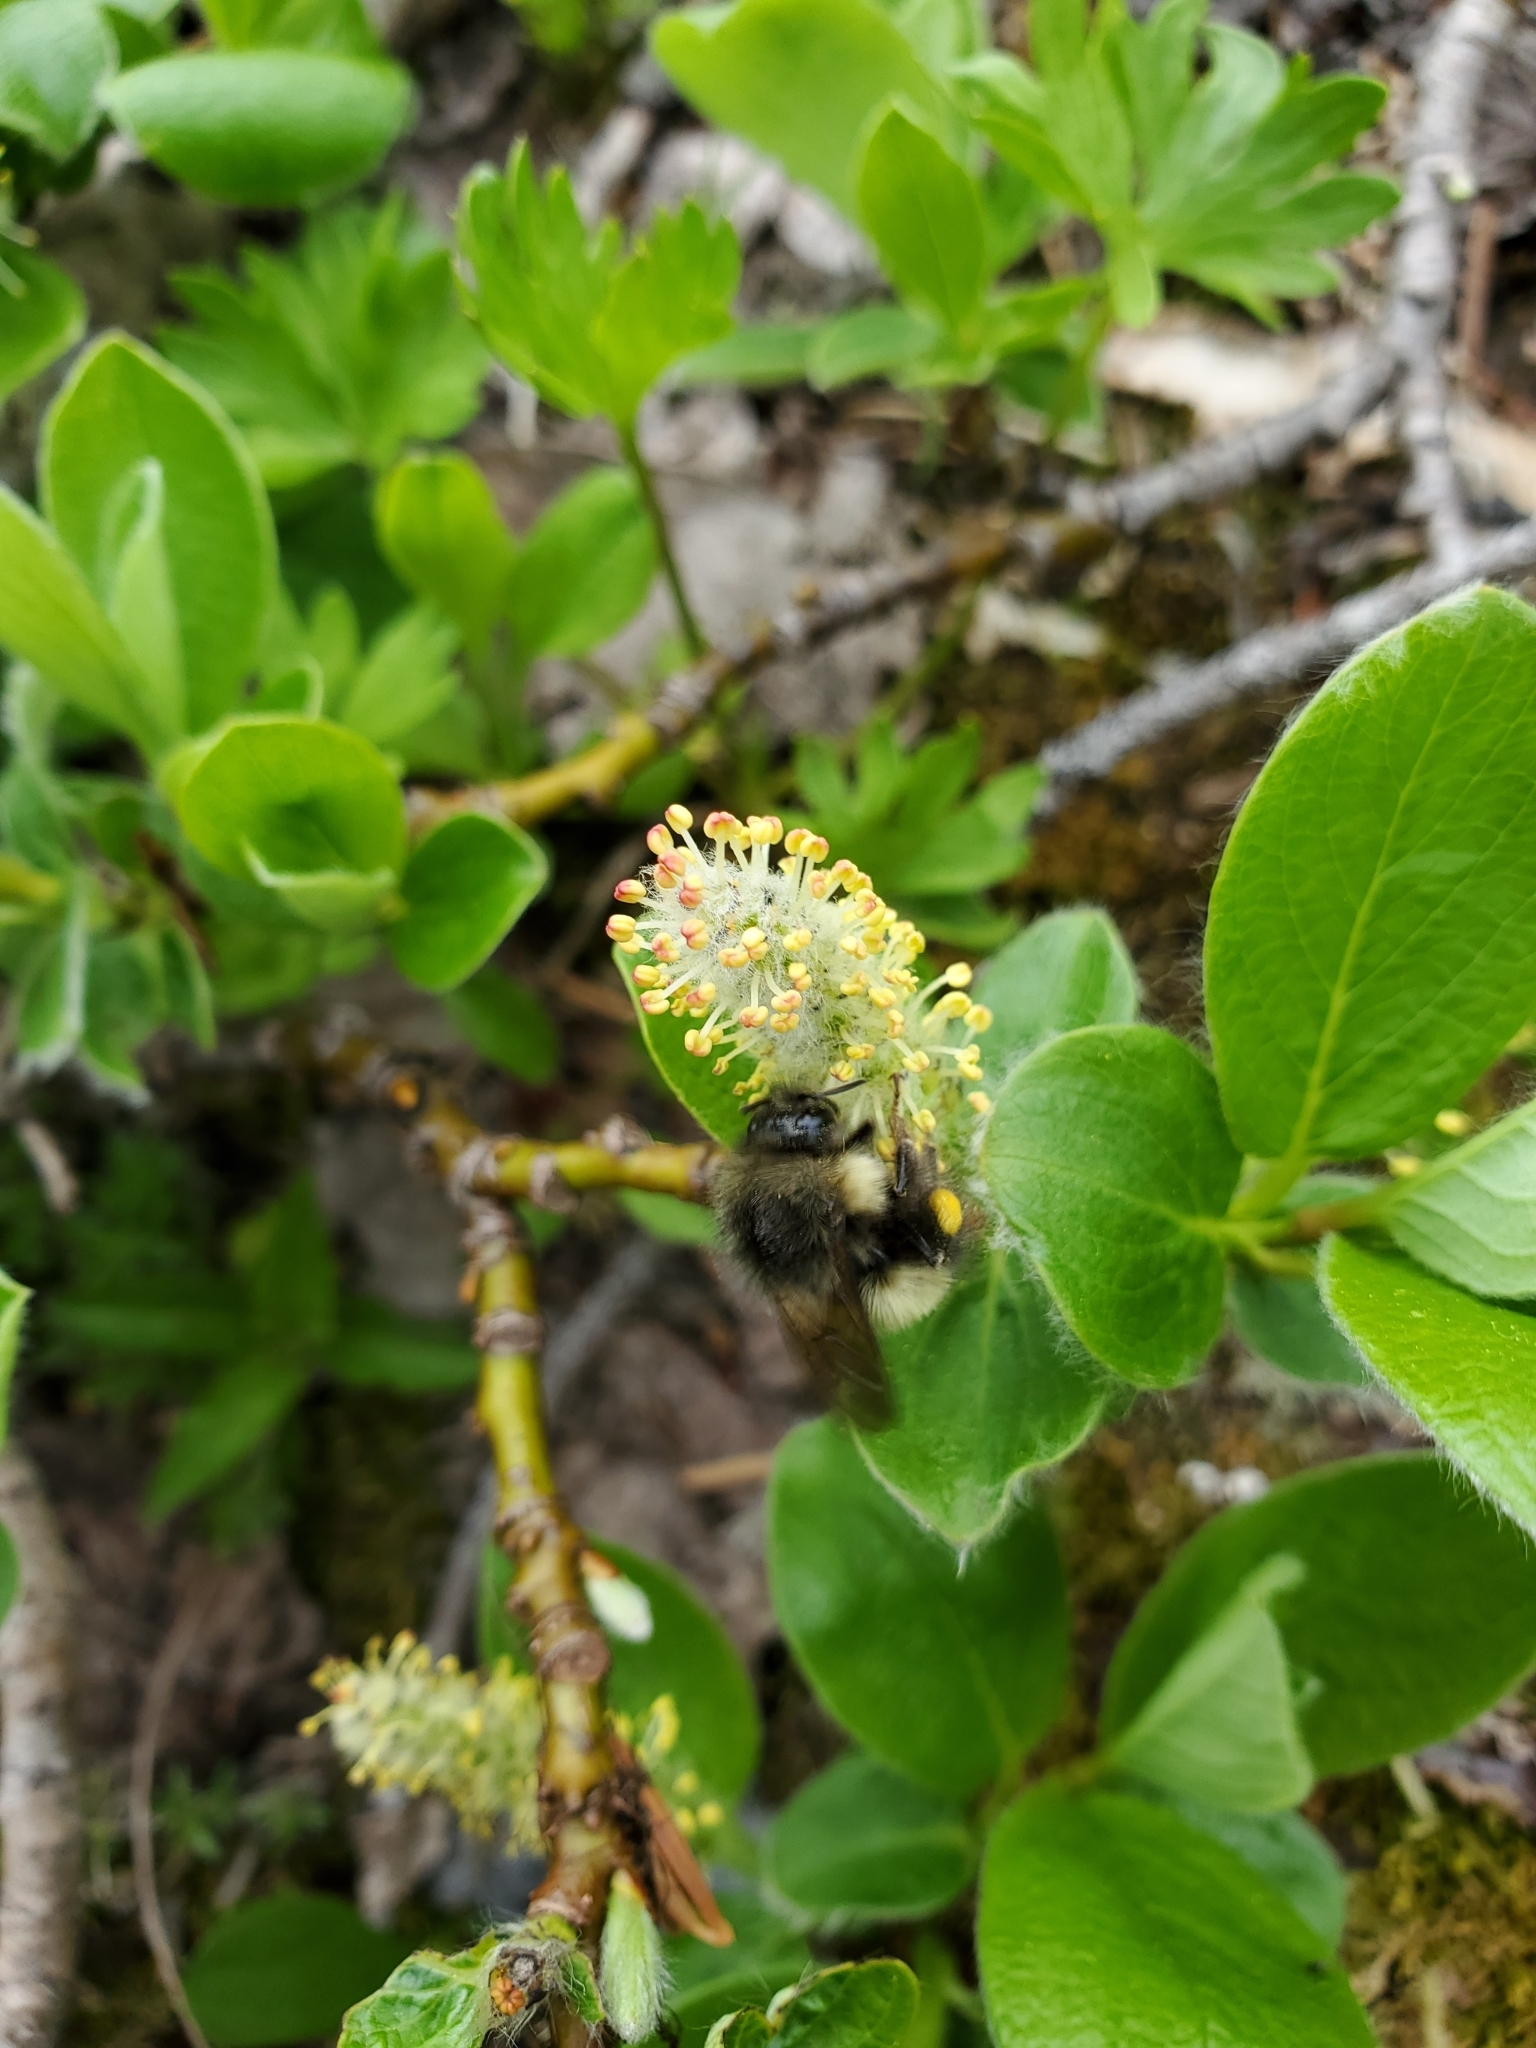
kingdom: Plantae
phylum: Tracheophyta
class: Magnoliopsida
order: Malpighiales
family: Salicaceae
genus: Salix
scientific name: Salix arctica
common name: Arctic willow
